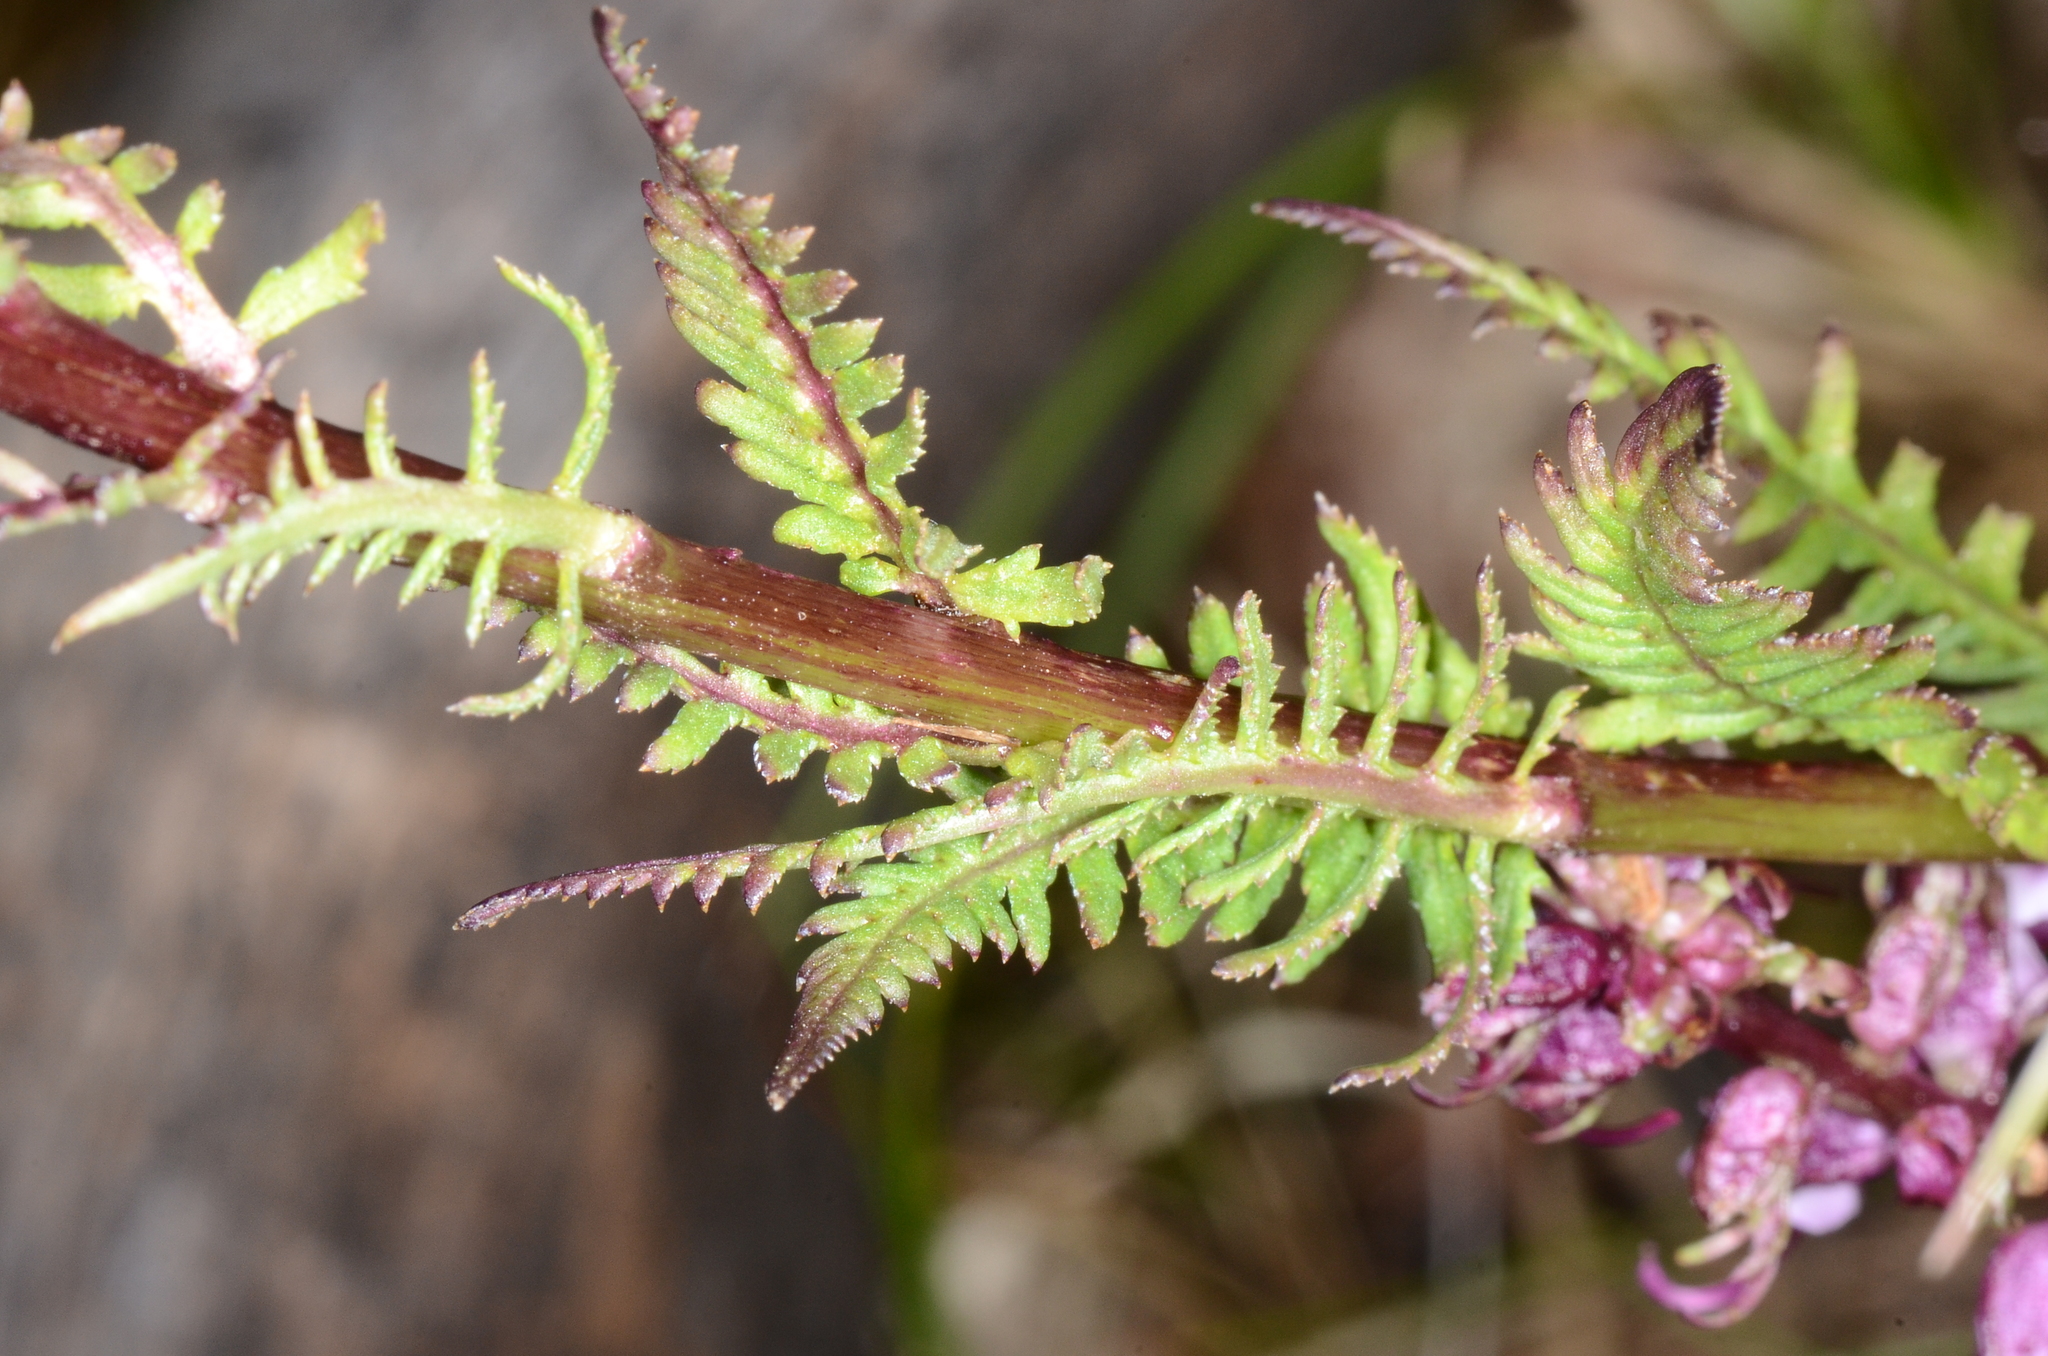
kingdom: Plantae
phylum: Tracheophyta
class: Magnoliopsida
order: Lamiales
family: Orobanchaceae
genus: Pedicularis
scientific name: Pedicularis groenlandica
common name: Elephant's-head
